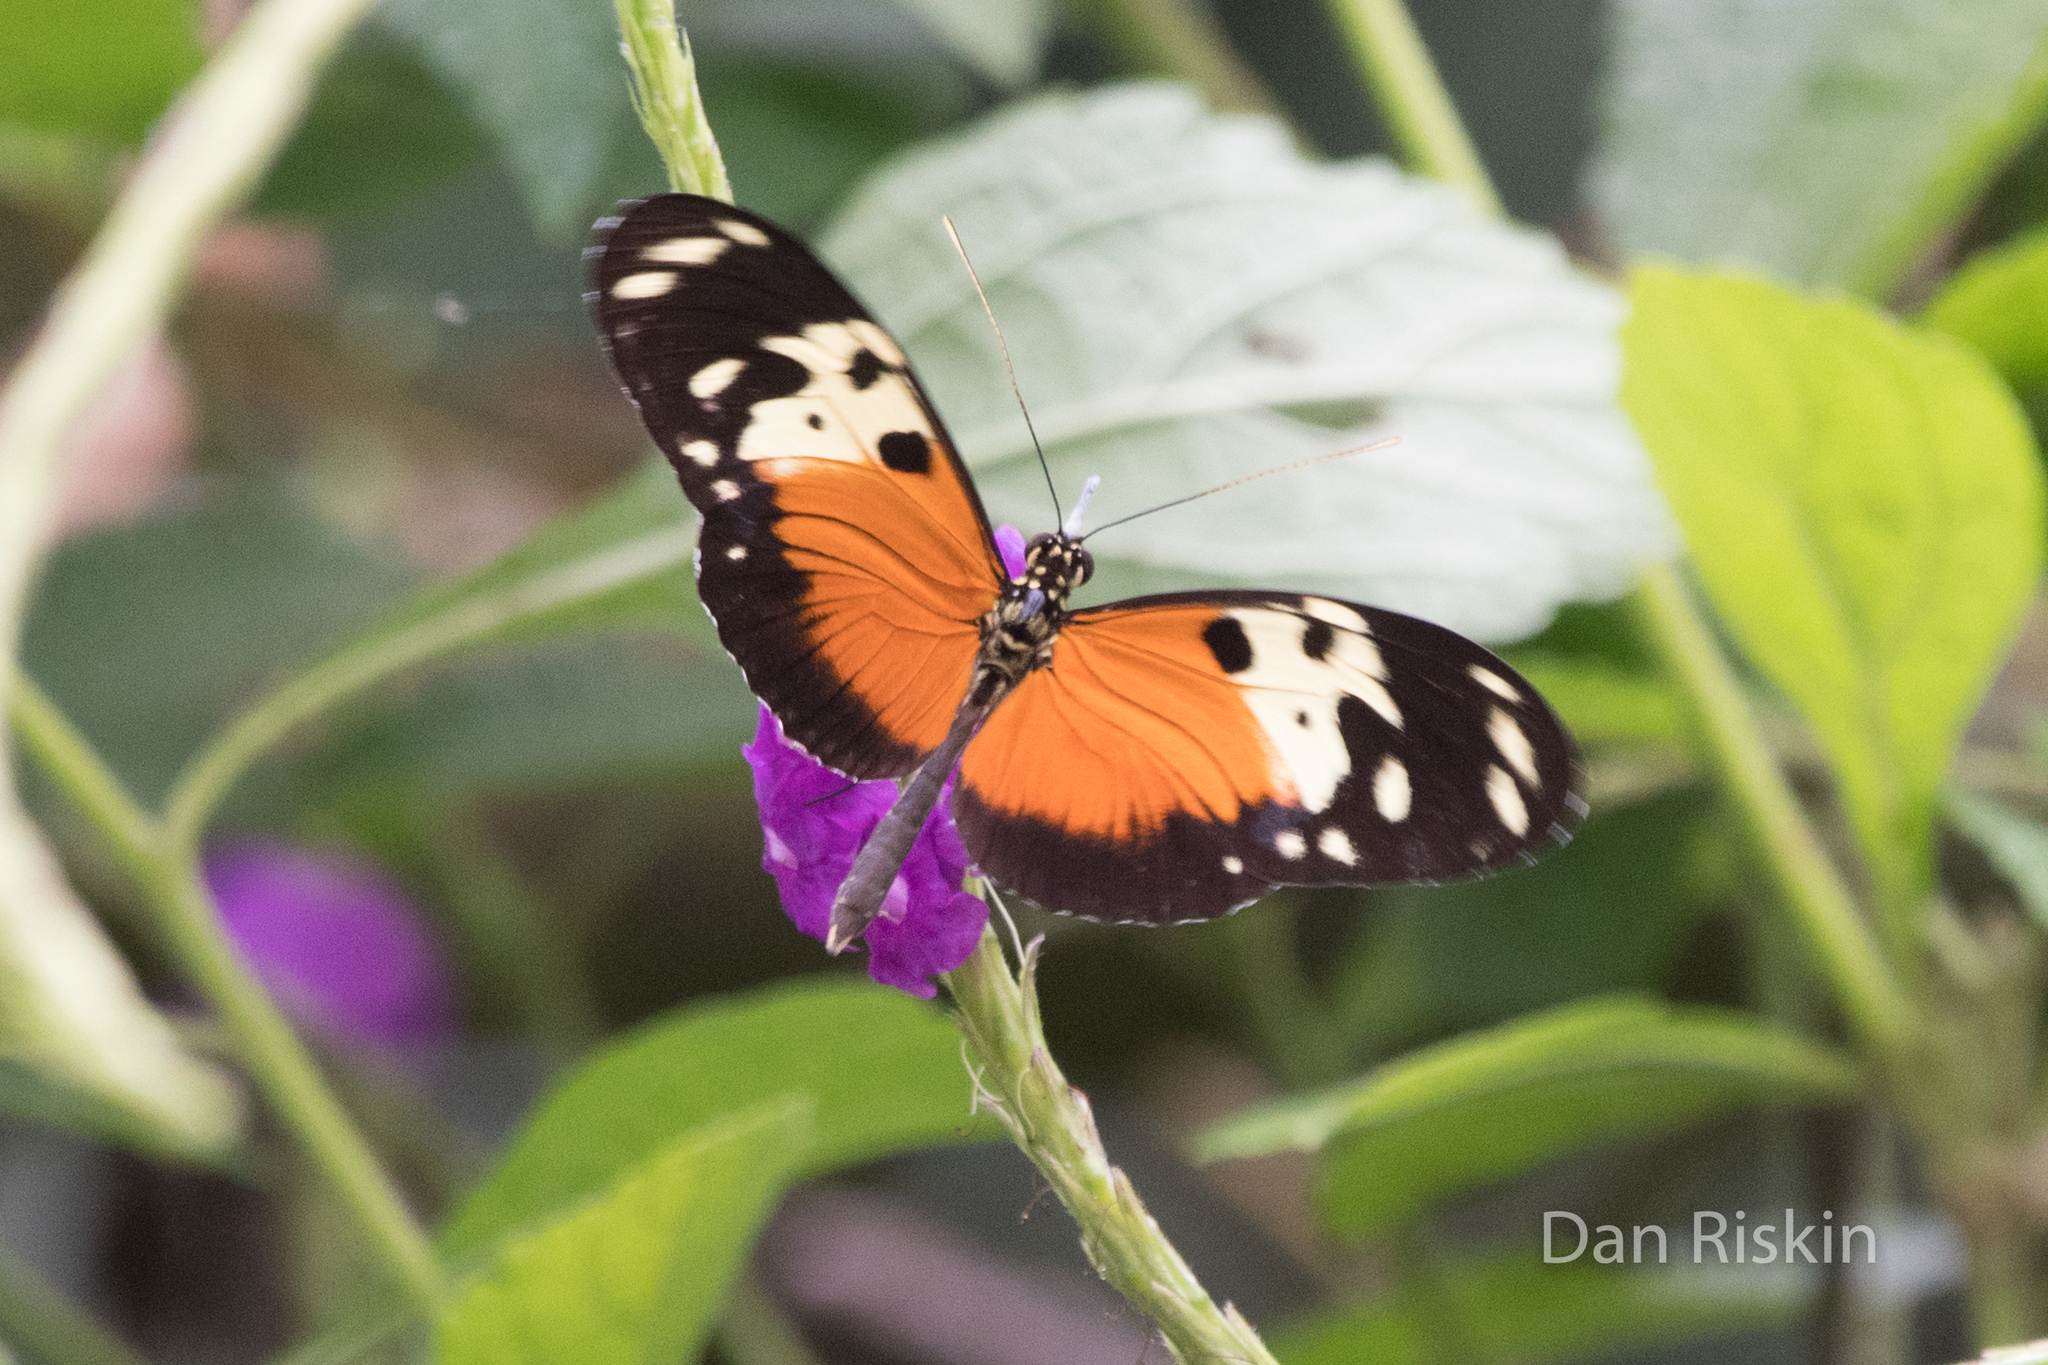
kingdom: Animalia
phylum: Arthropoda
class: Insecta
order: Lepidoptera
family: Nymphalidae
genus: Heliconius
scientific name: Heliconius hecale
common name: Tiger longwing
